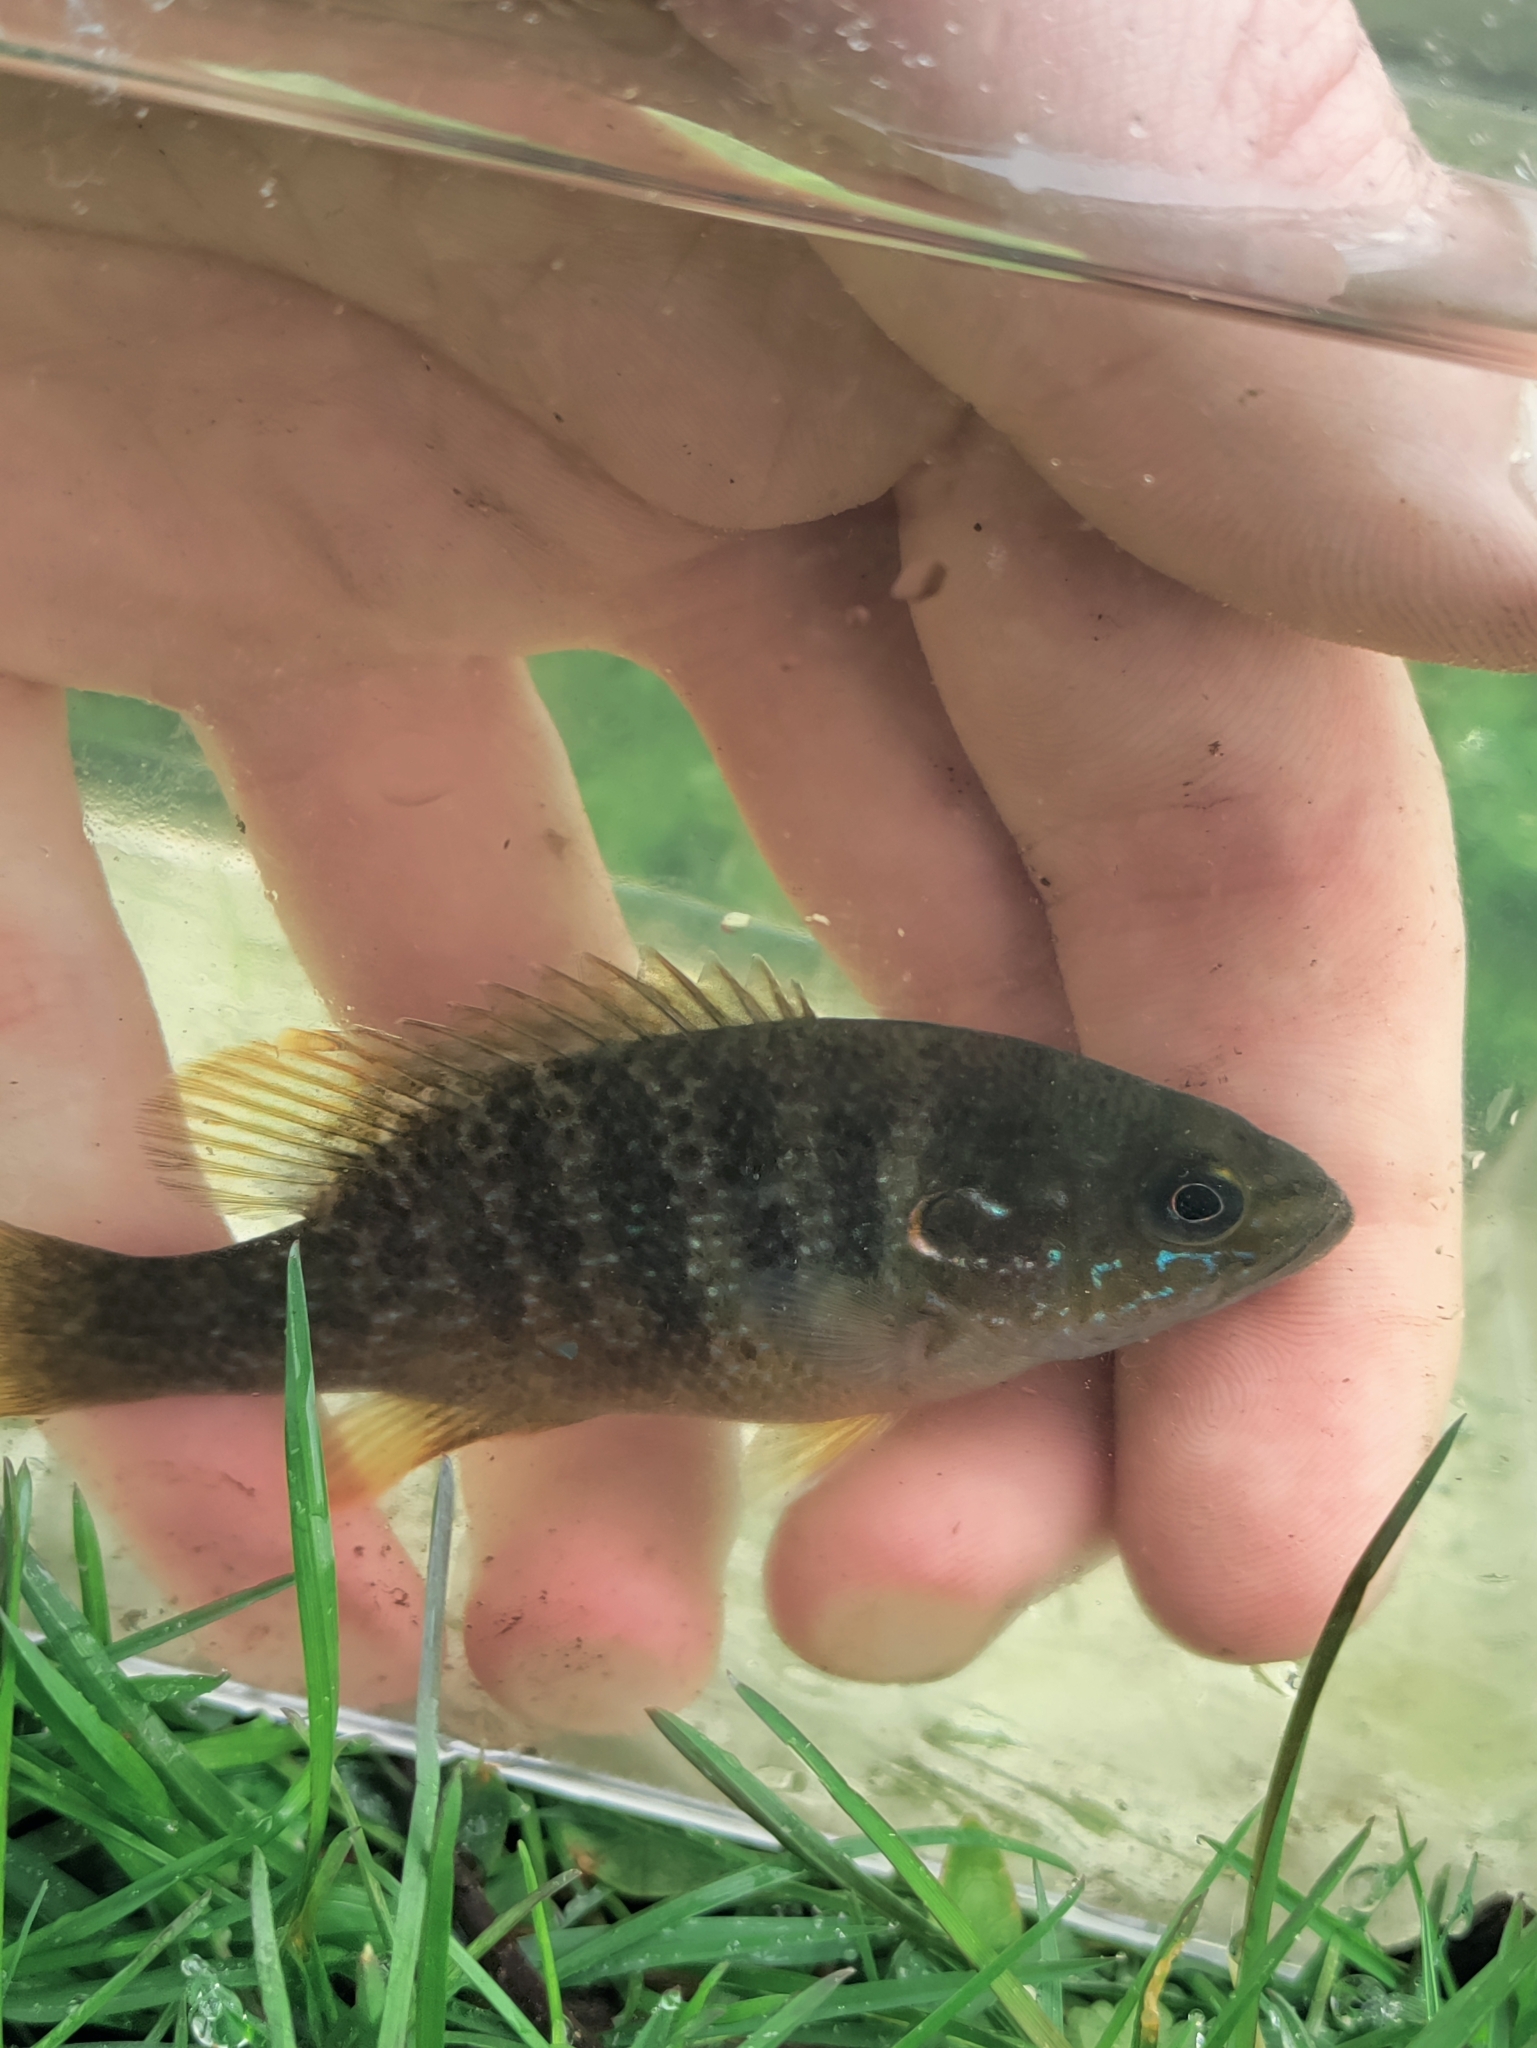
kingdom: Animalia
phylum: Chordata
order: Perciformes
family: Centrarchidae
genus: Lepomis
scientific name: Lepomis cyanellus
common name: Green sunfish
